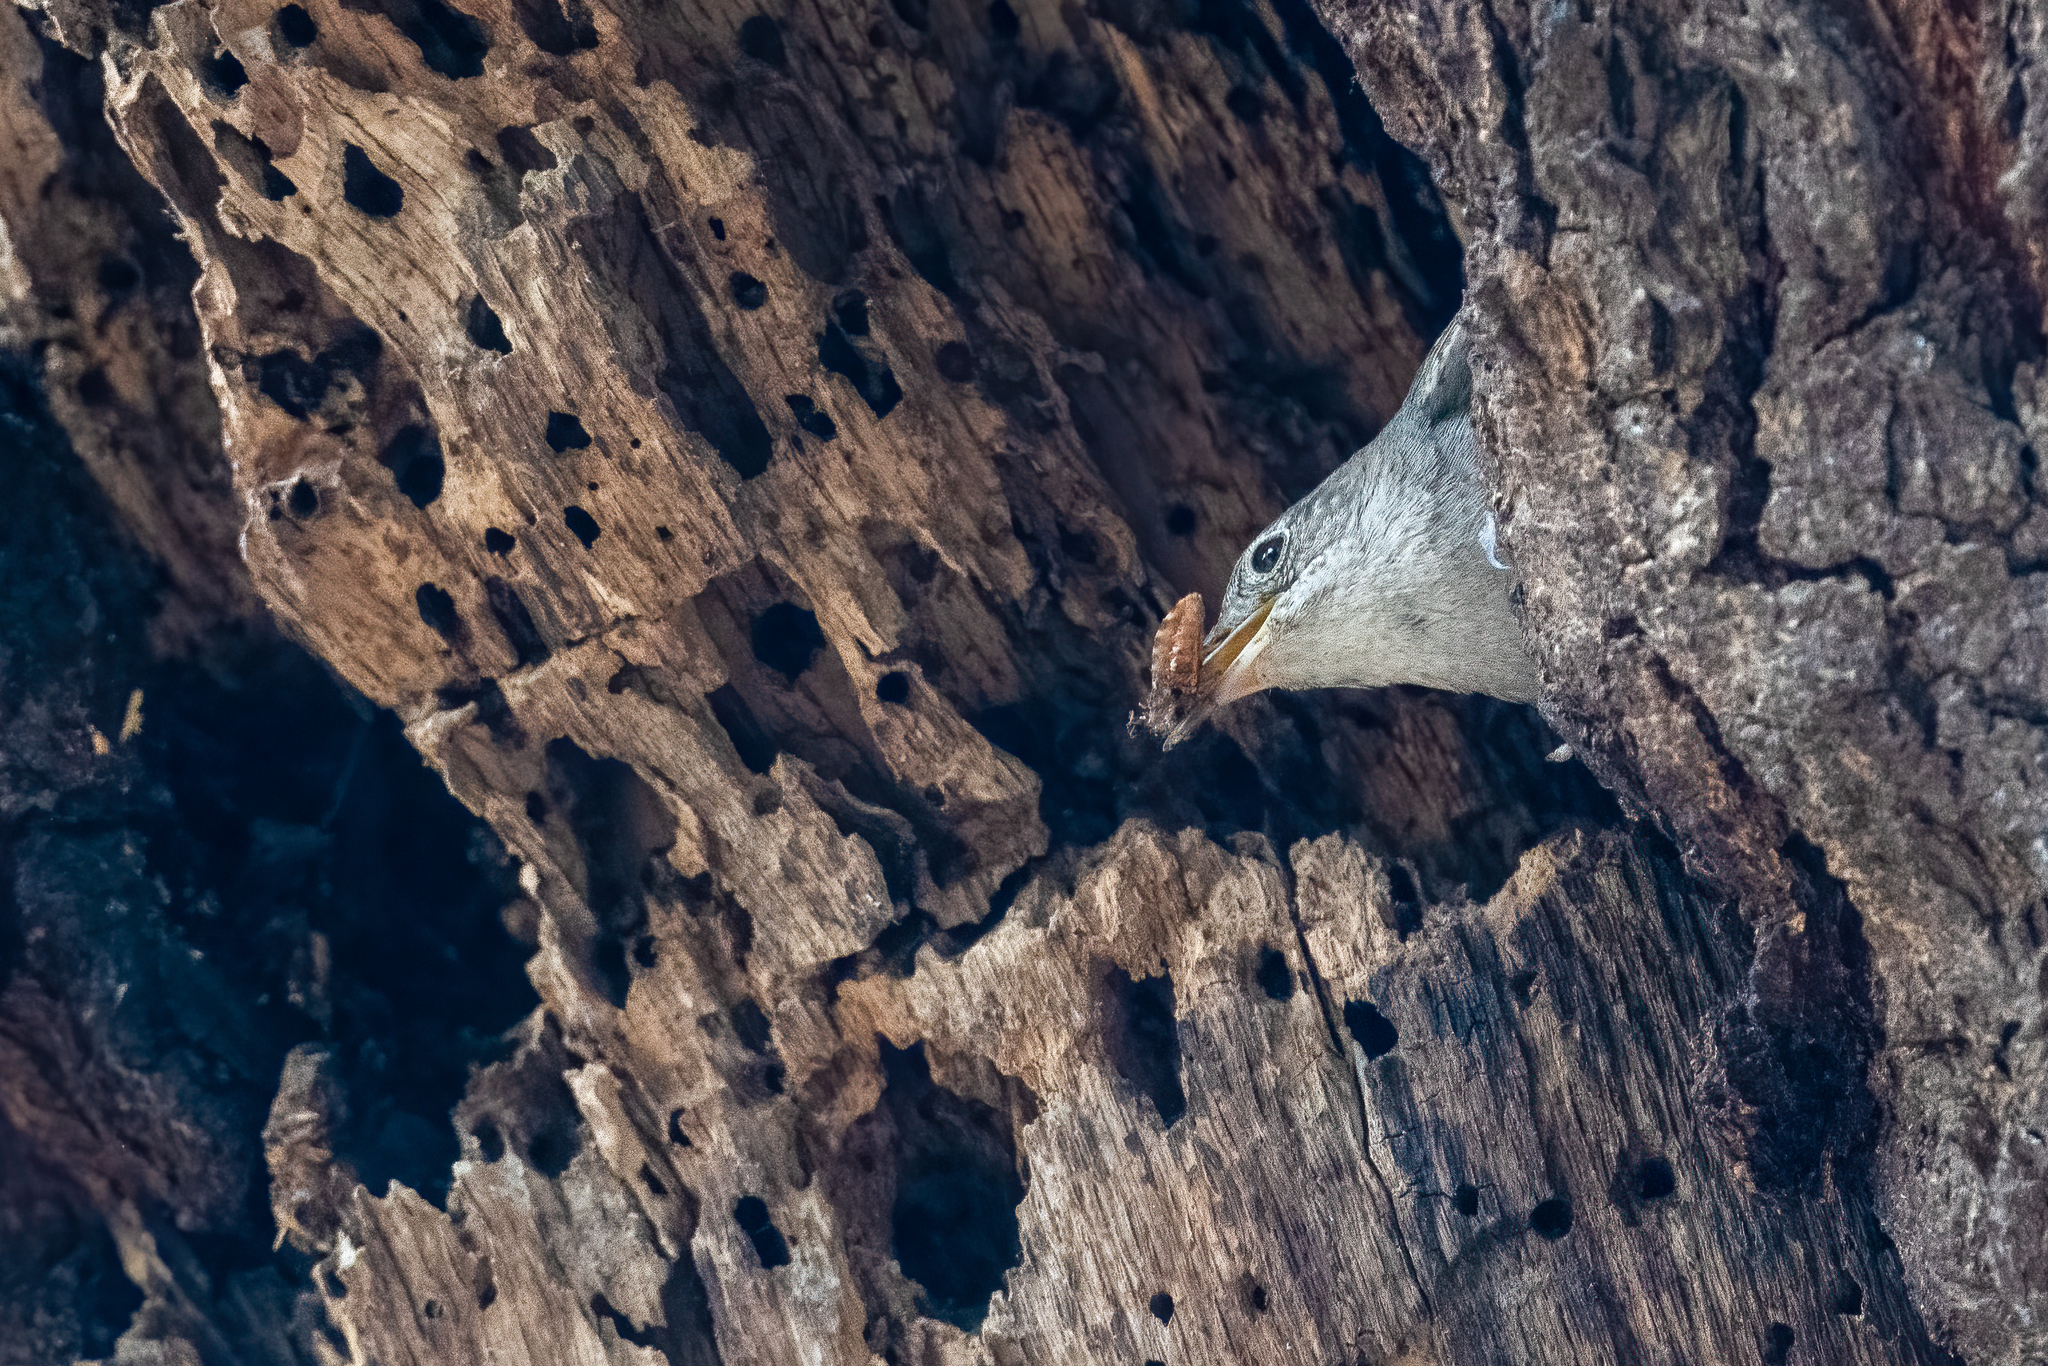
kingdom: Animalia
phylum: Chordata
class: Aves
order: Passeriformes
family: Troglodytidae
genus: Troglodytes
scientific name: Troglodytes aedon
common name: House wren
